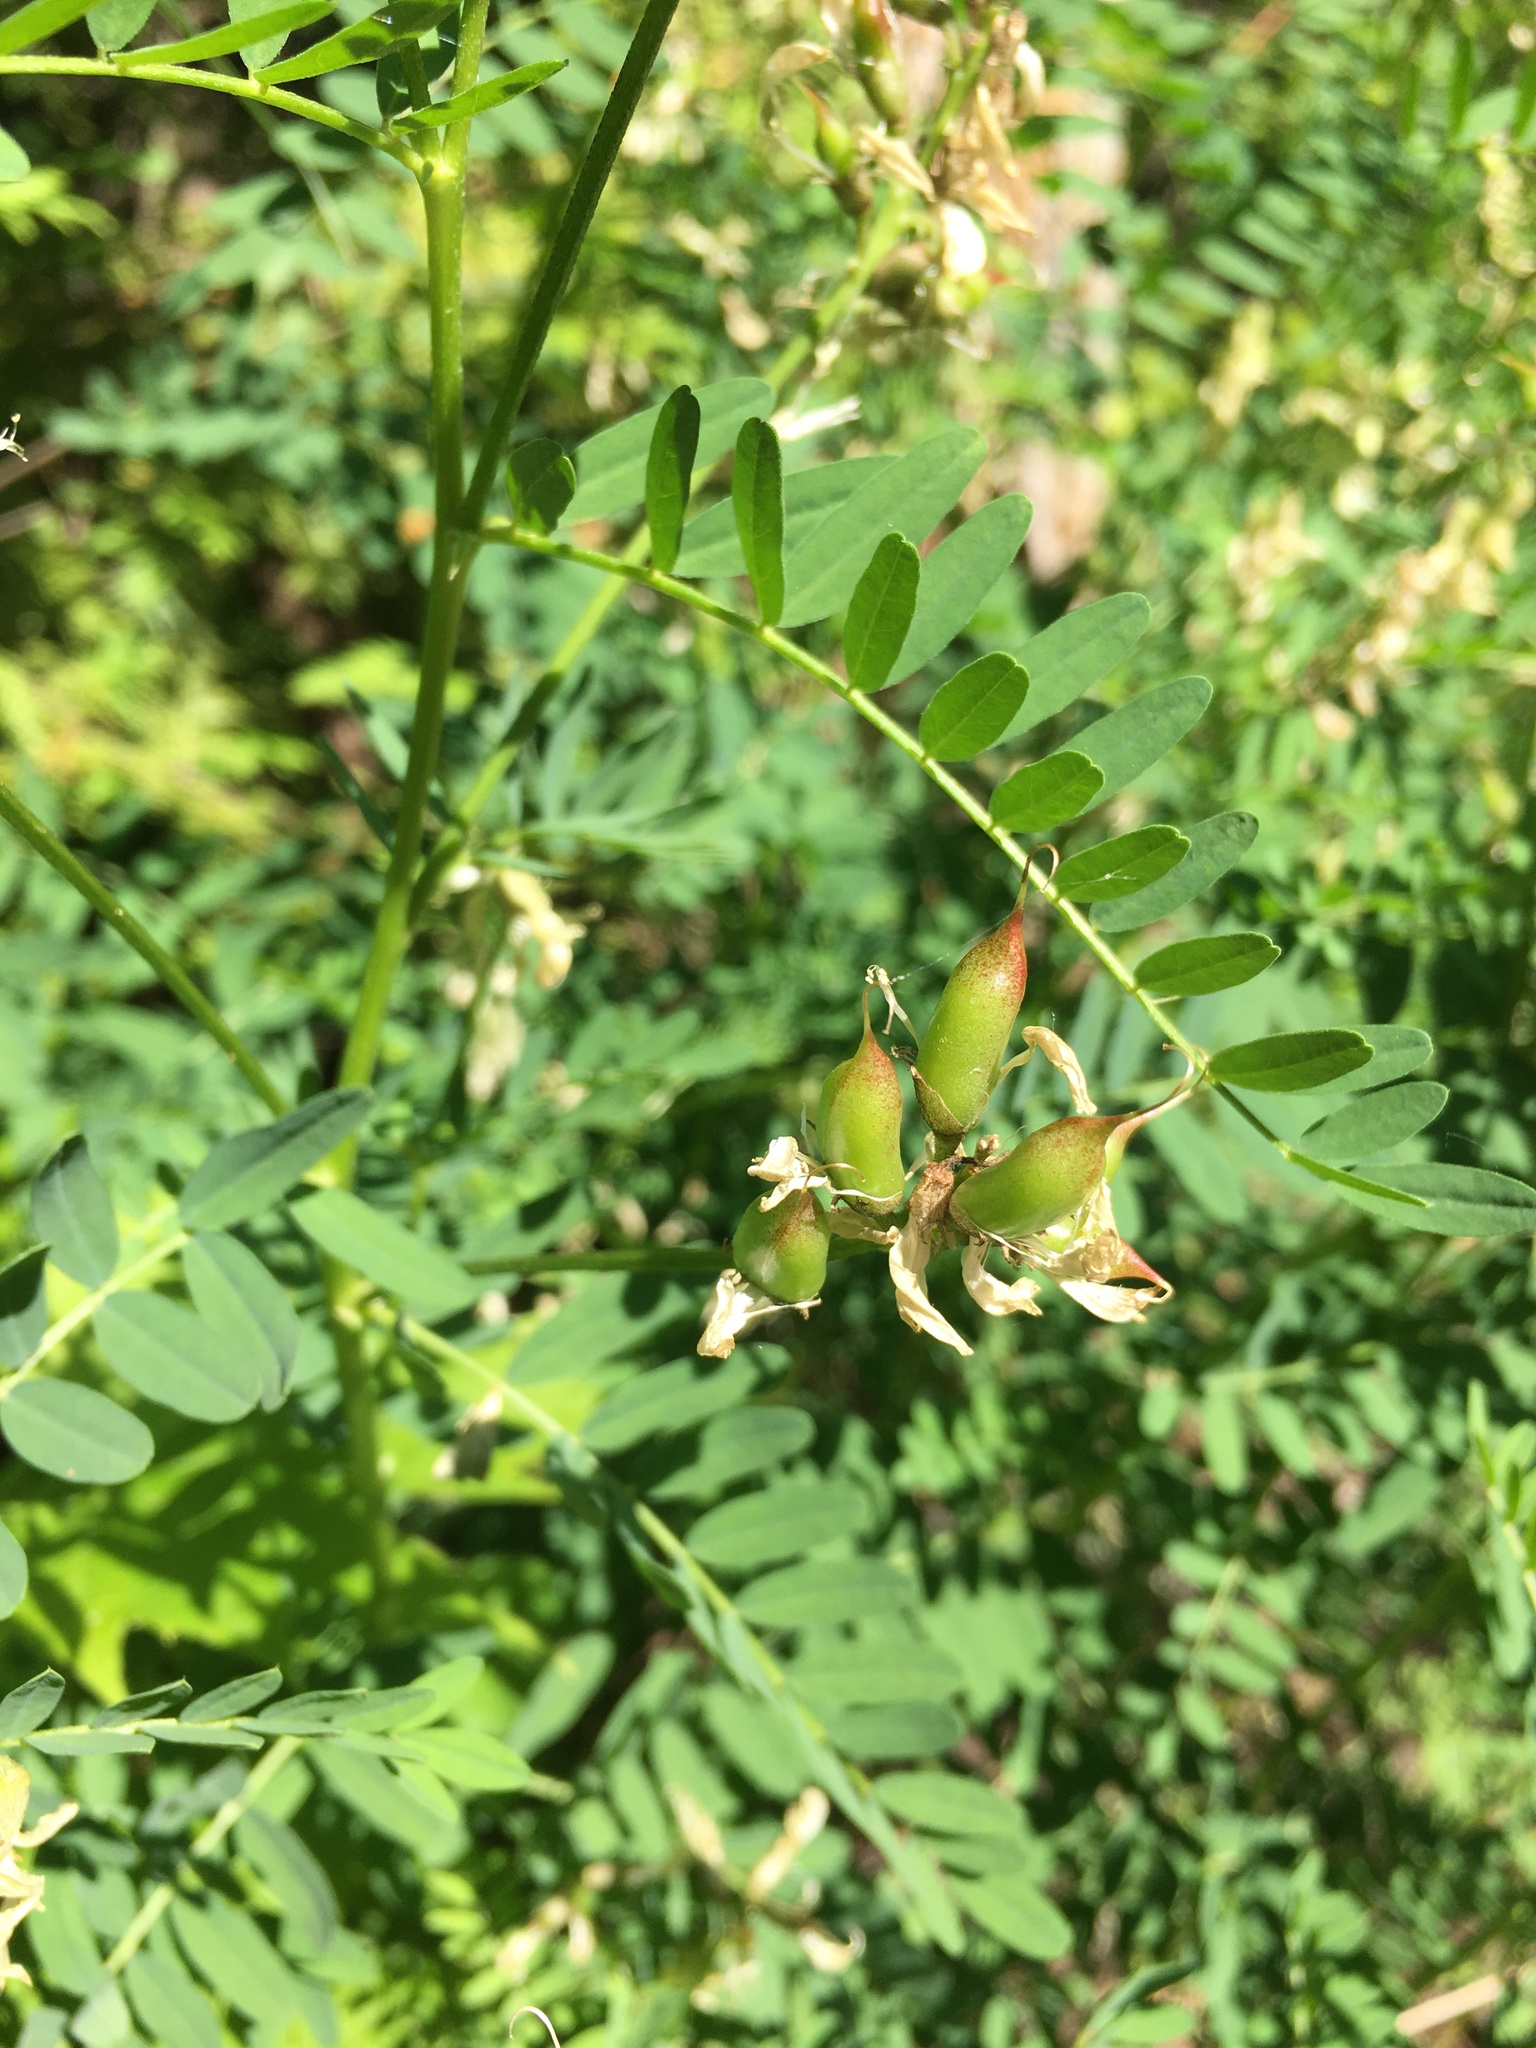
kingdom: Plantae
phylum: Tracheophyta
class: Magnoliopsida
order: Fabales
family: Fabaceae
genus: Astragalus
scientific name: Astragalus canadensis
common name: Canada milk-vetch
